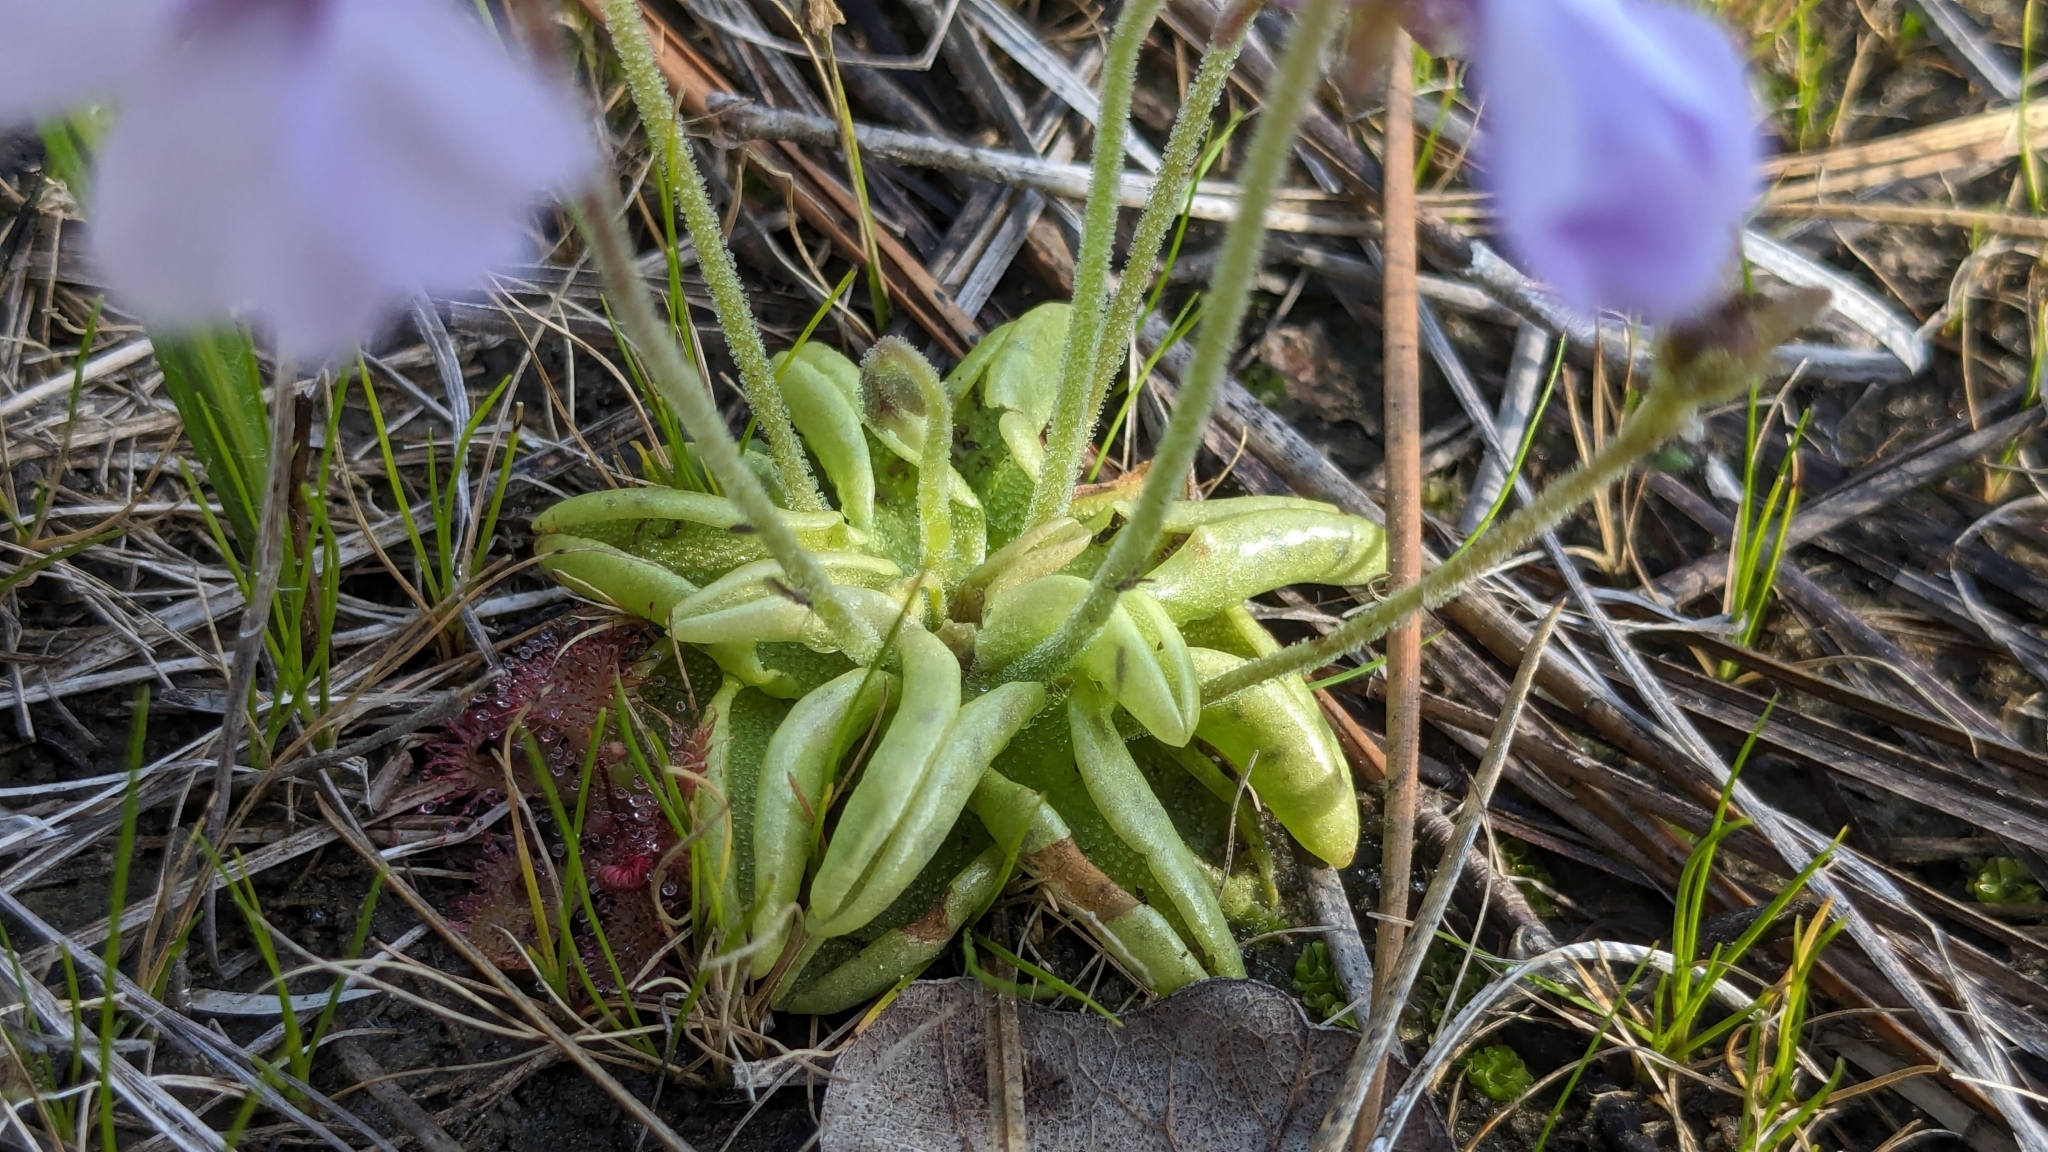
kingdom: Plantae
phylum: Tracheophyta
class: Magnoliopsida
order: Lamiales
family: Lentibulariaceae
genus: Pinguicula
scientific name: Pinguicula pumila
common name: Small butterwort
